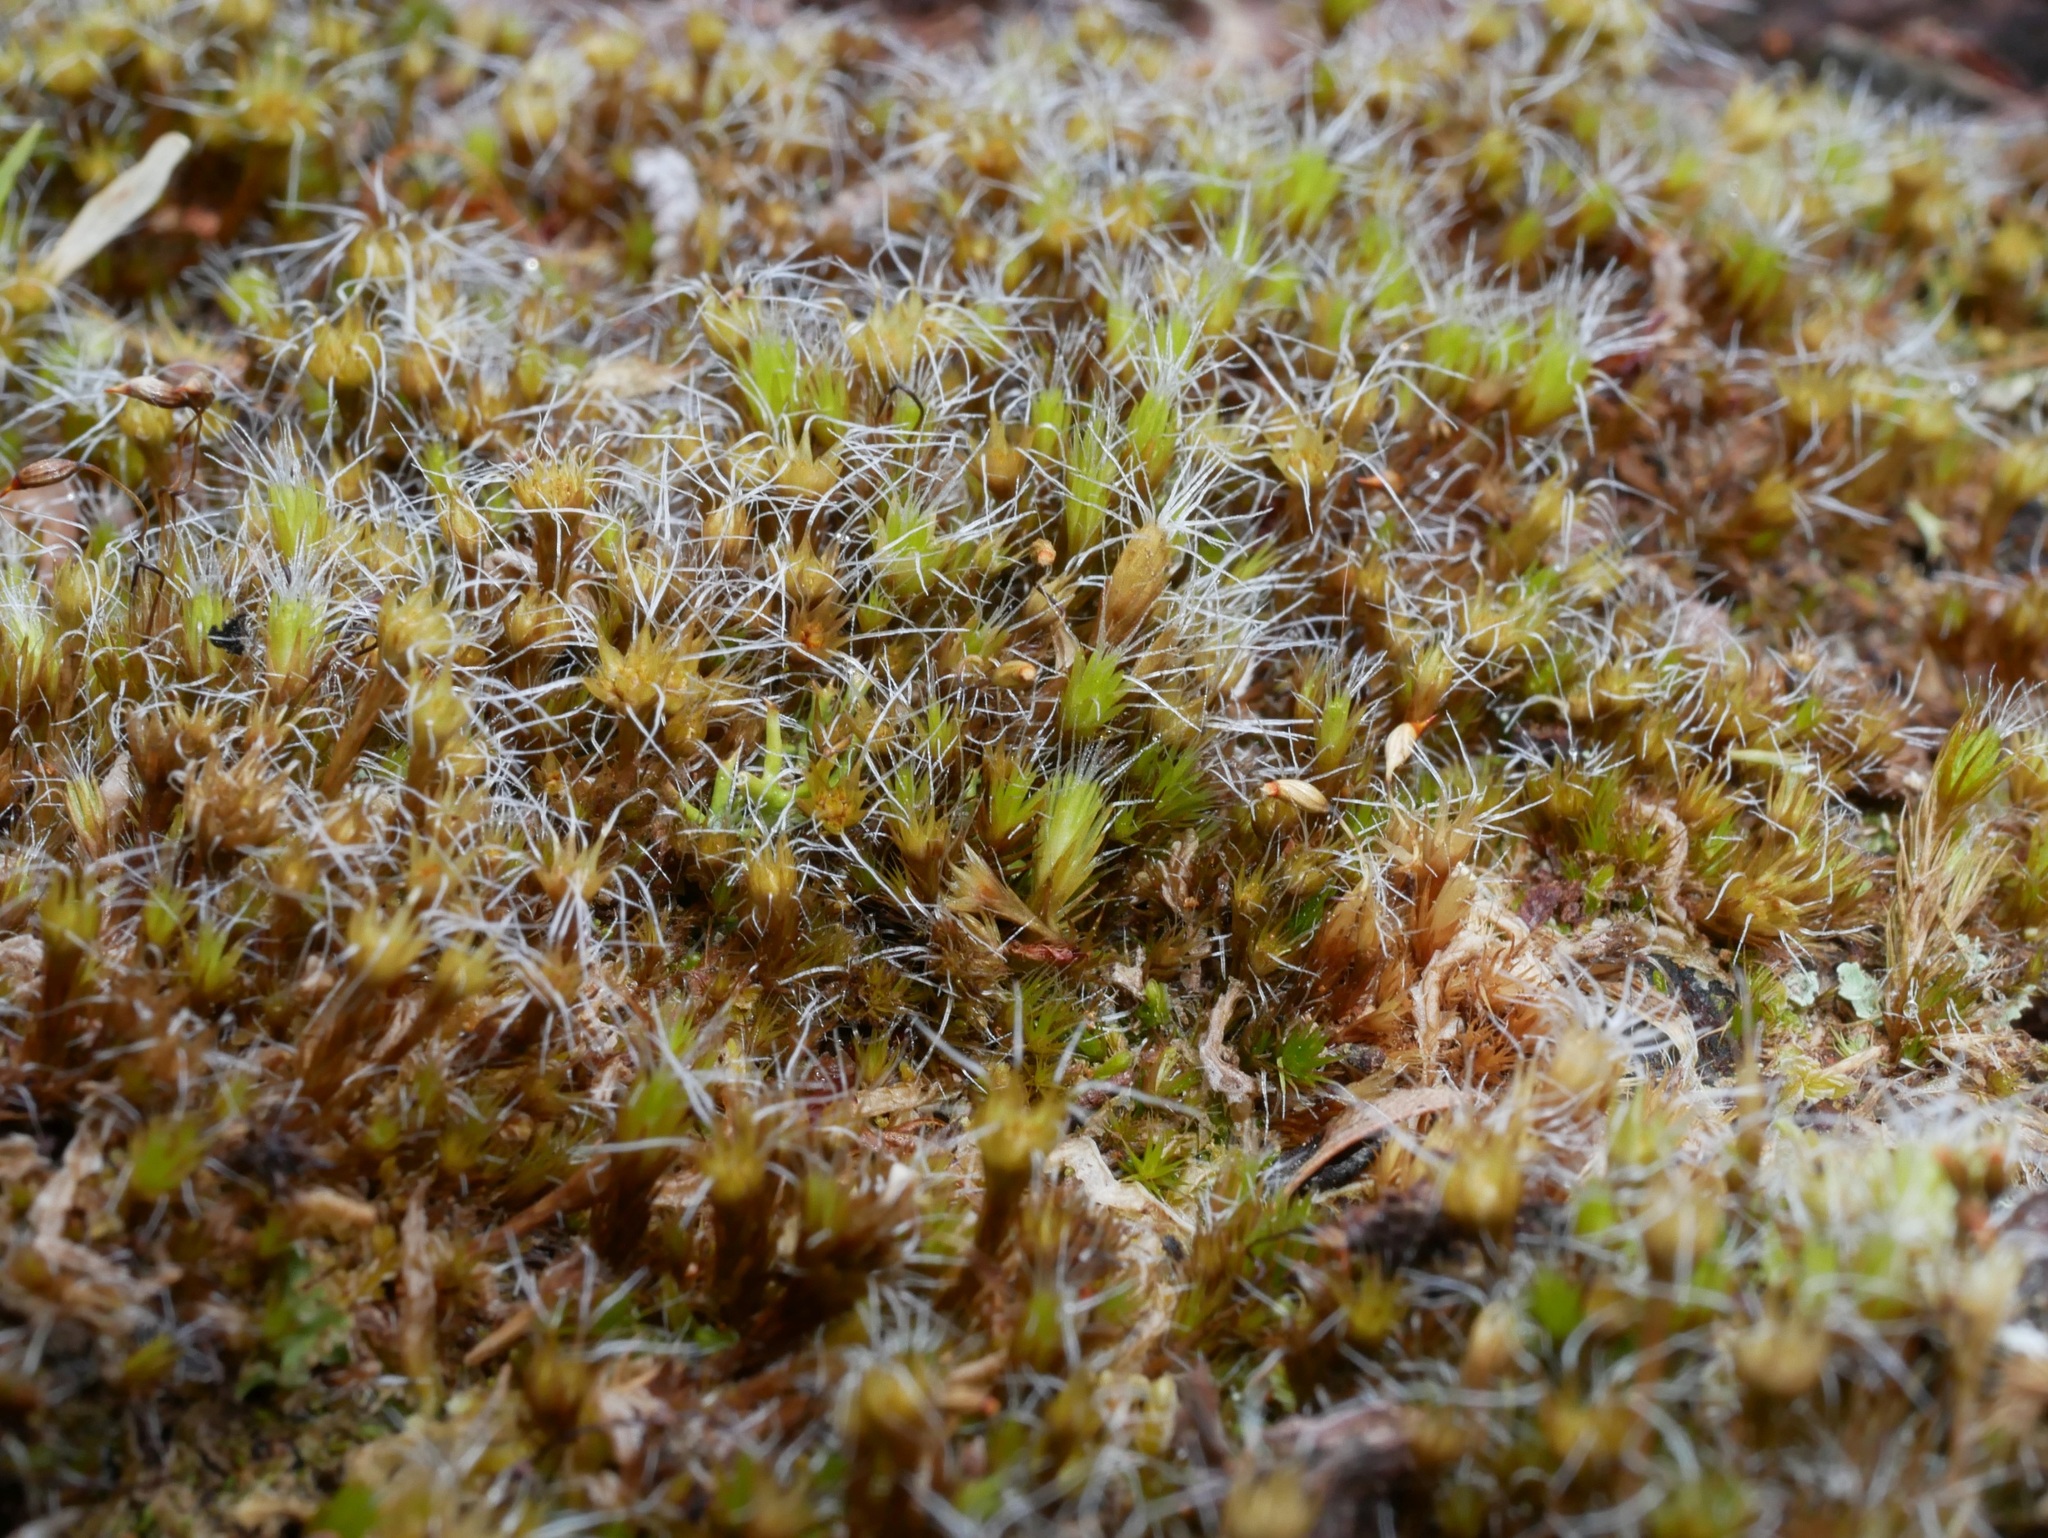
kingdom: Plantae
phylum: Bryophyta
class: Bryopsida
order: Dicranales
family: Leucobryaceae
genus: Campylopus
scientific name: Campylopus introflexus
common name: Heath star moss
